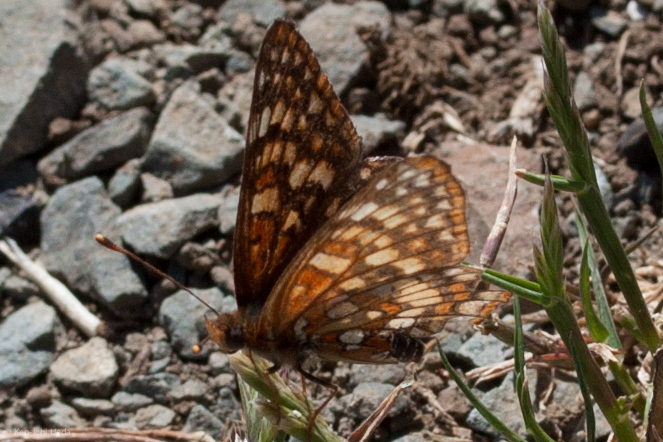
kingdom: Animalia
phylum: Arthropoda
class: Insecta
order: Lepidoptera
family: Nymphalidae
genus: Chlosyne
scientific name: Chlosyne palla
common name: Northern checkerspot
